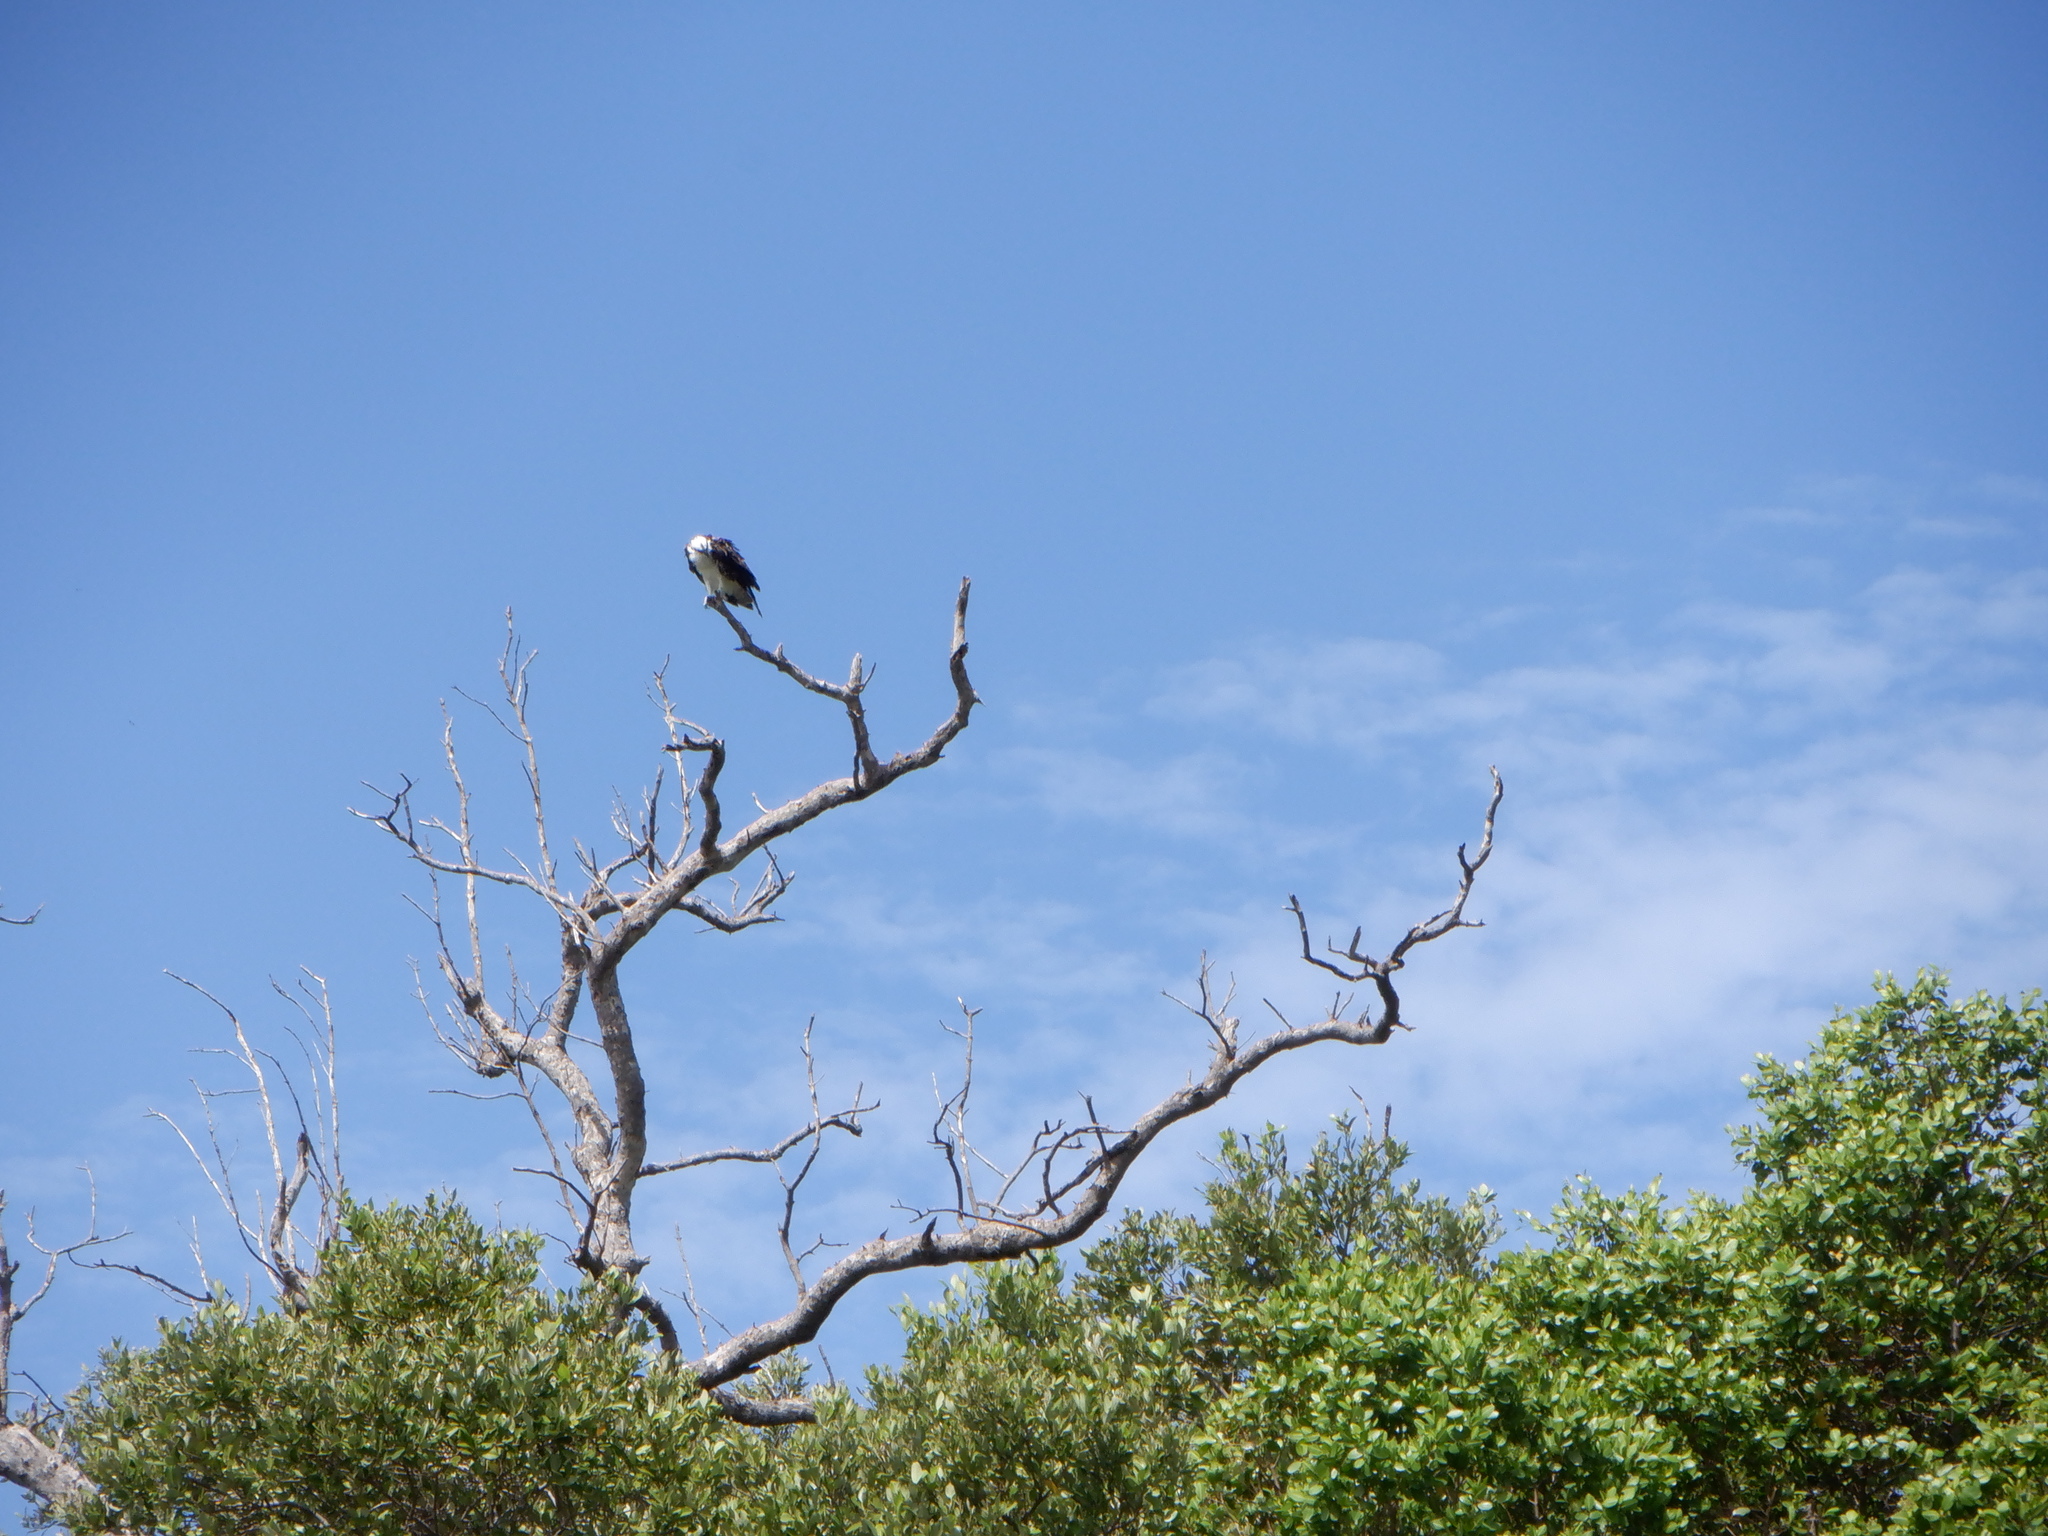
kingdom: Animalia
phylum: Chordata
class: Aves
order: Accipitriformes
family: Pandionidae
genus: Pandion
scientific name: Pandion haliaetus
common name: Osprey
